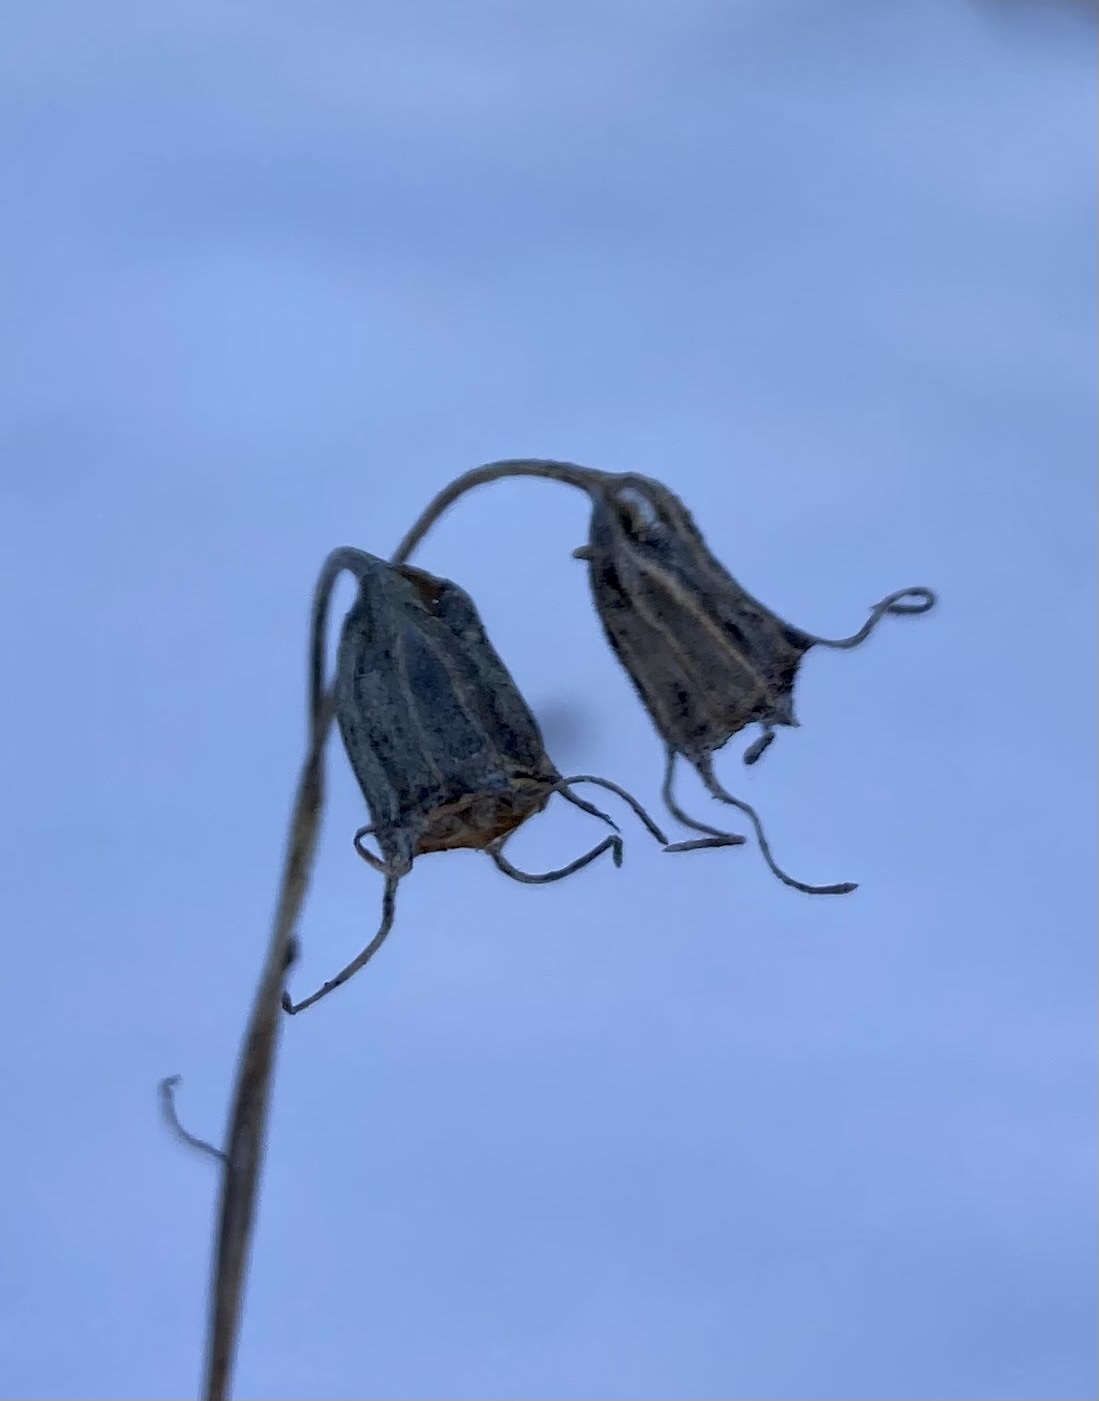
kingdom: Plantae
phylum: Tracheophyta
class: Magnoliopsida
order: Asterales
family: Campanulaceae
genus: Campanula
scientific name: Campanula alaskana
